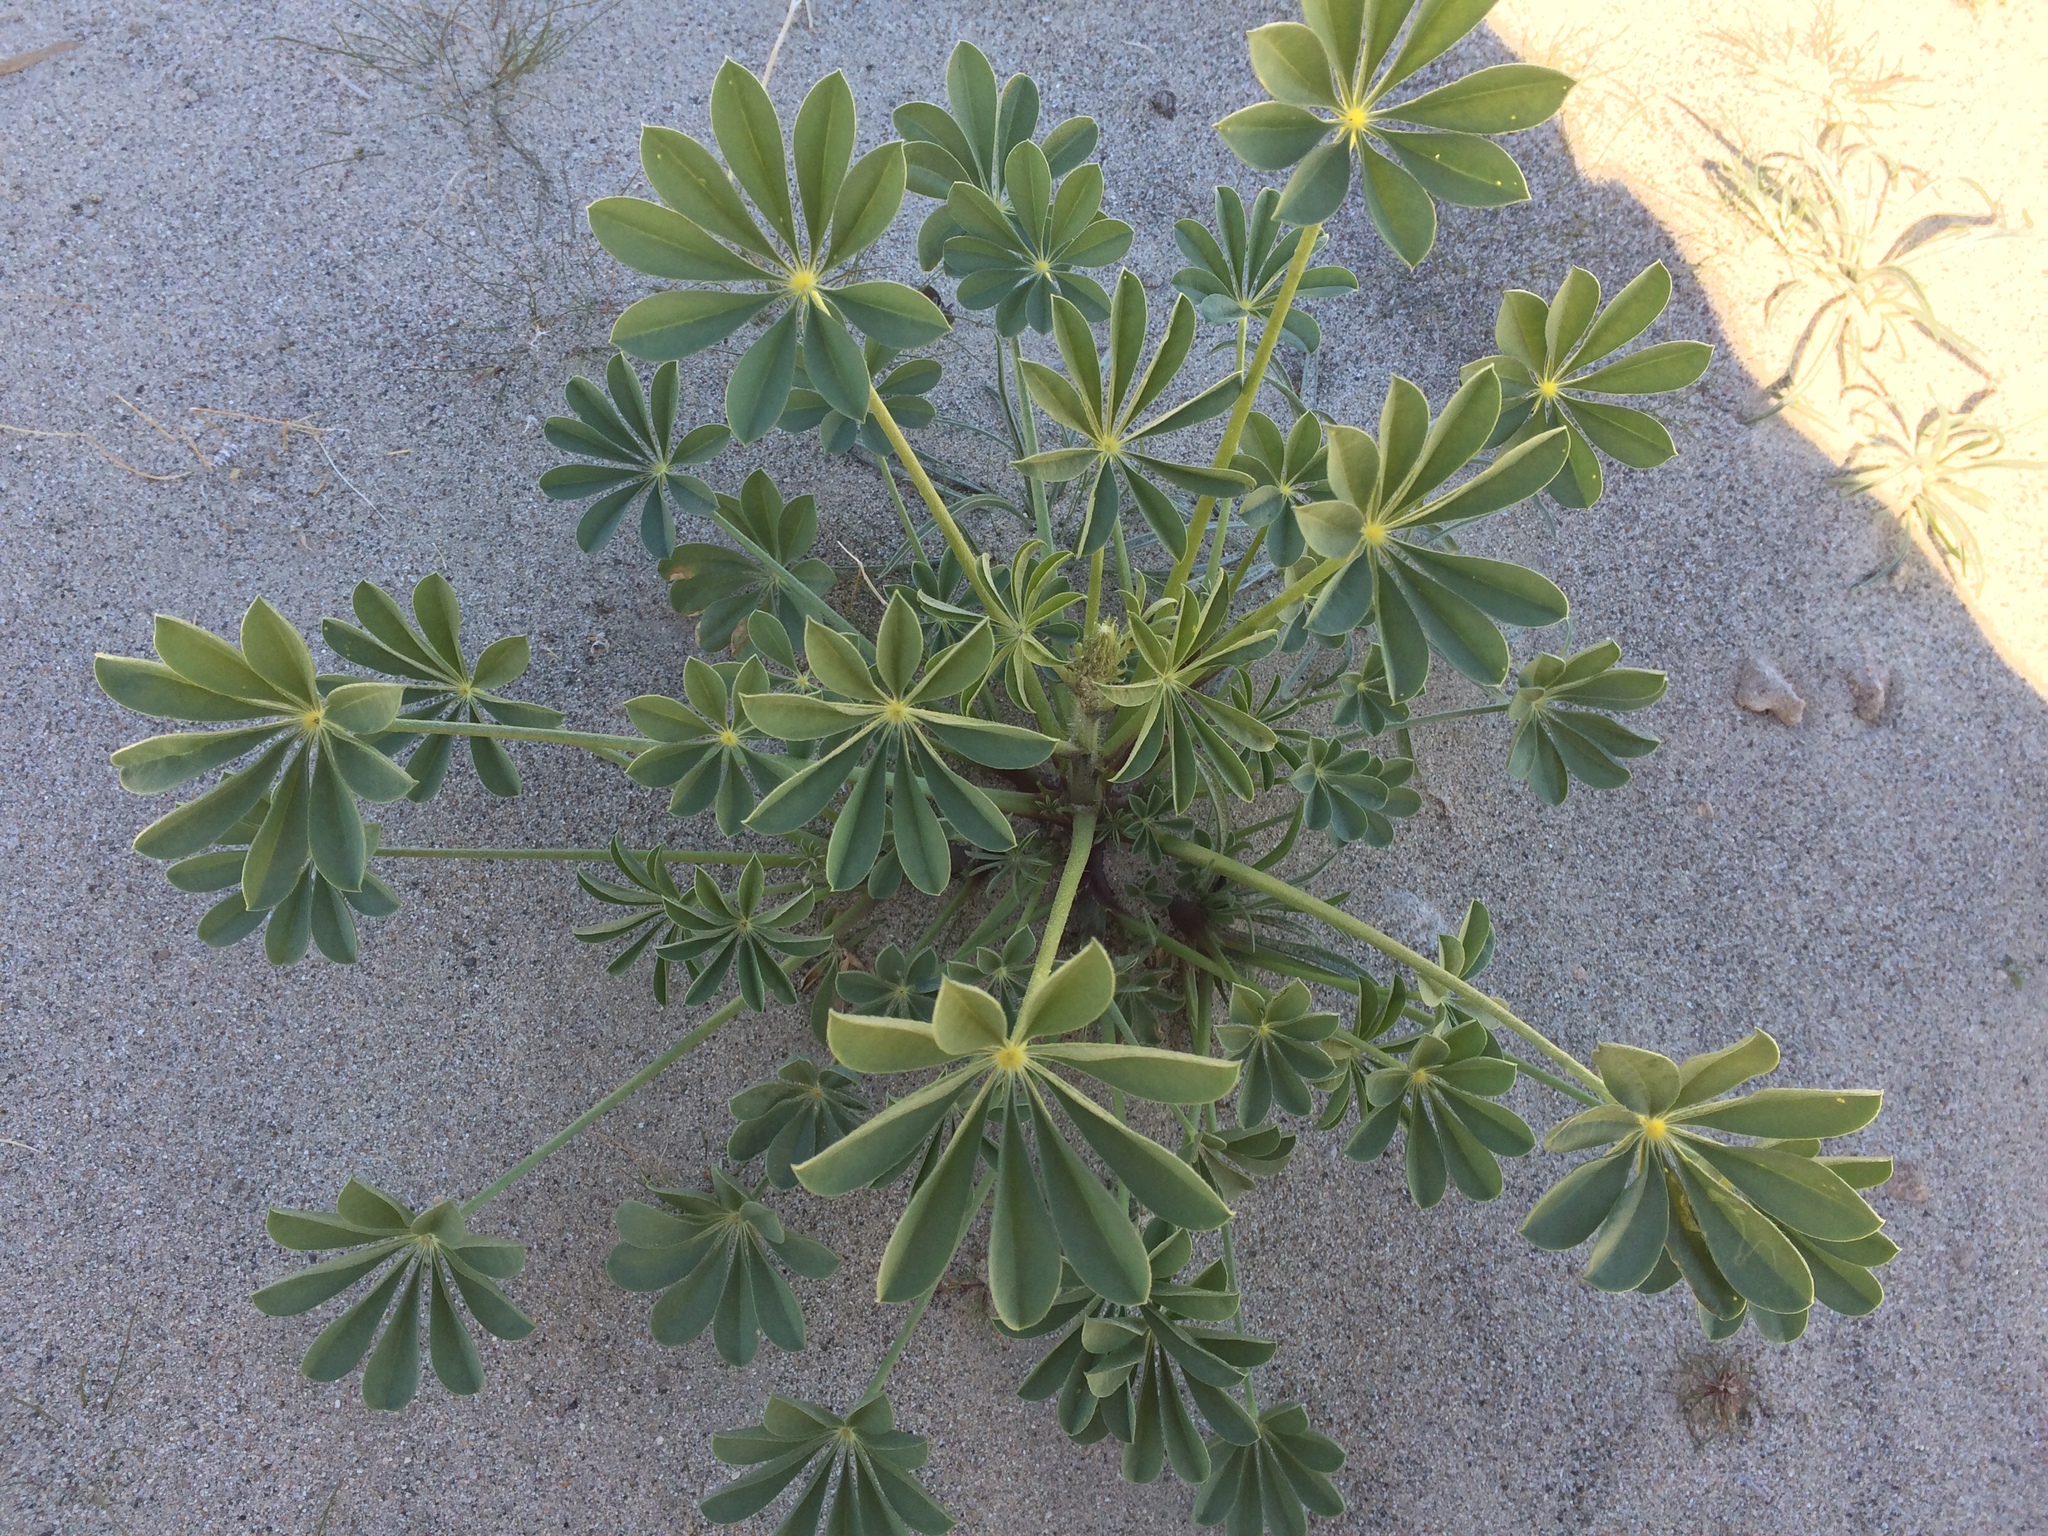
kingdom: Plantae
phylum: Tracheophyta
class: Magnoliopsida
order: Fabales
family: Fabaceae
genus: Lupinus
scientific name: Lupinus arizonicus
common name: Arizona lupine
